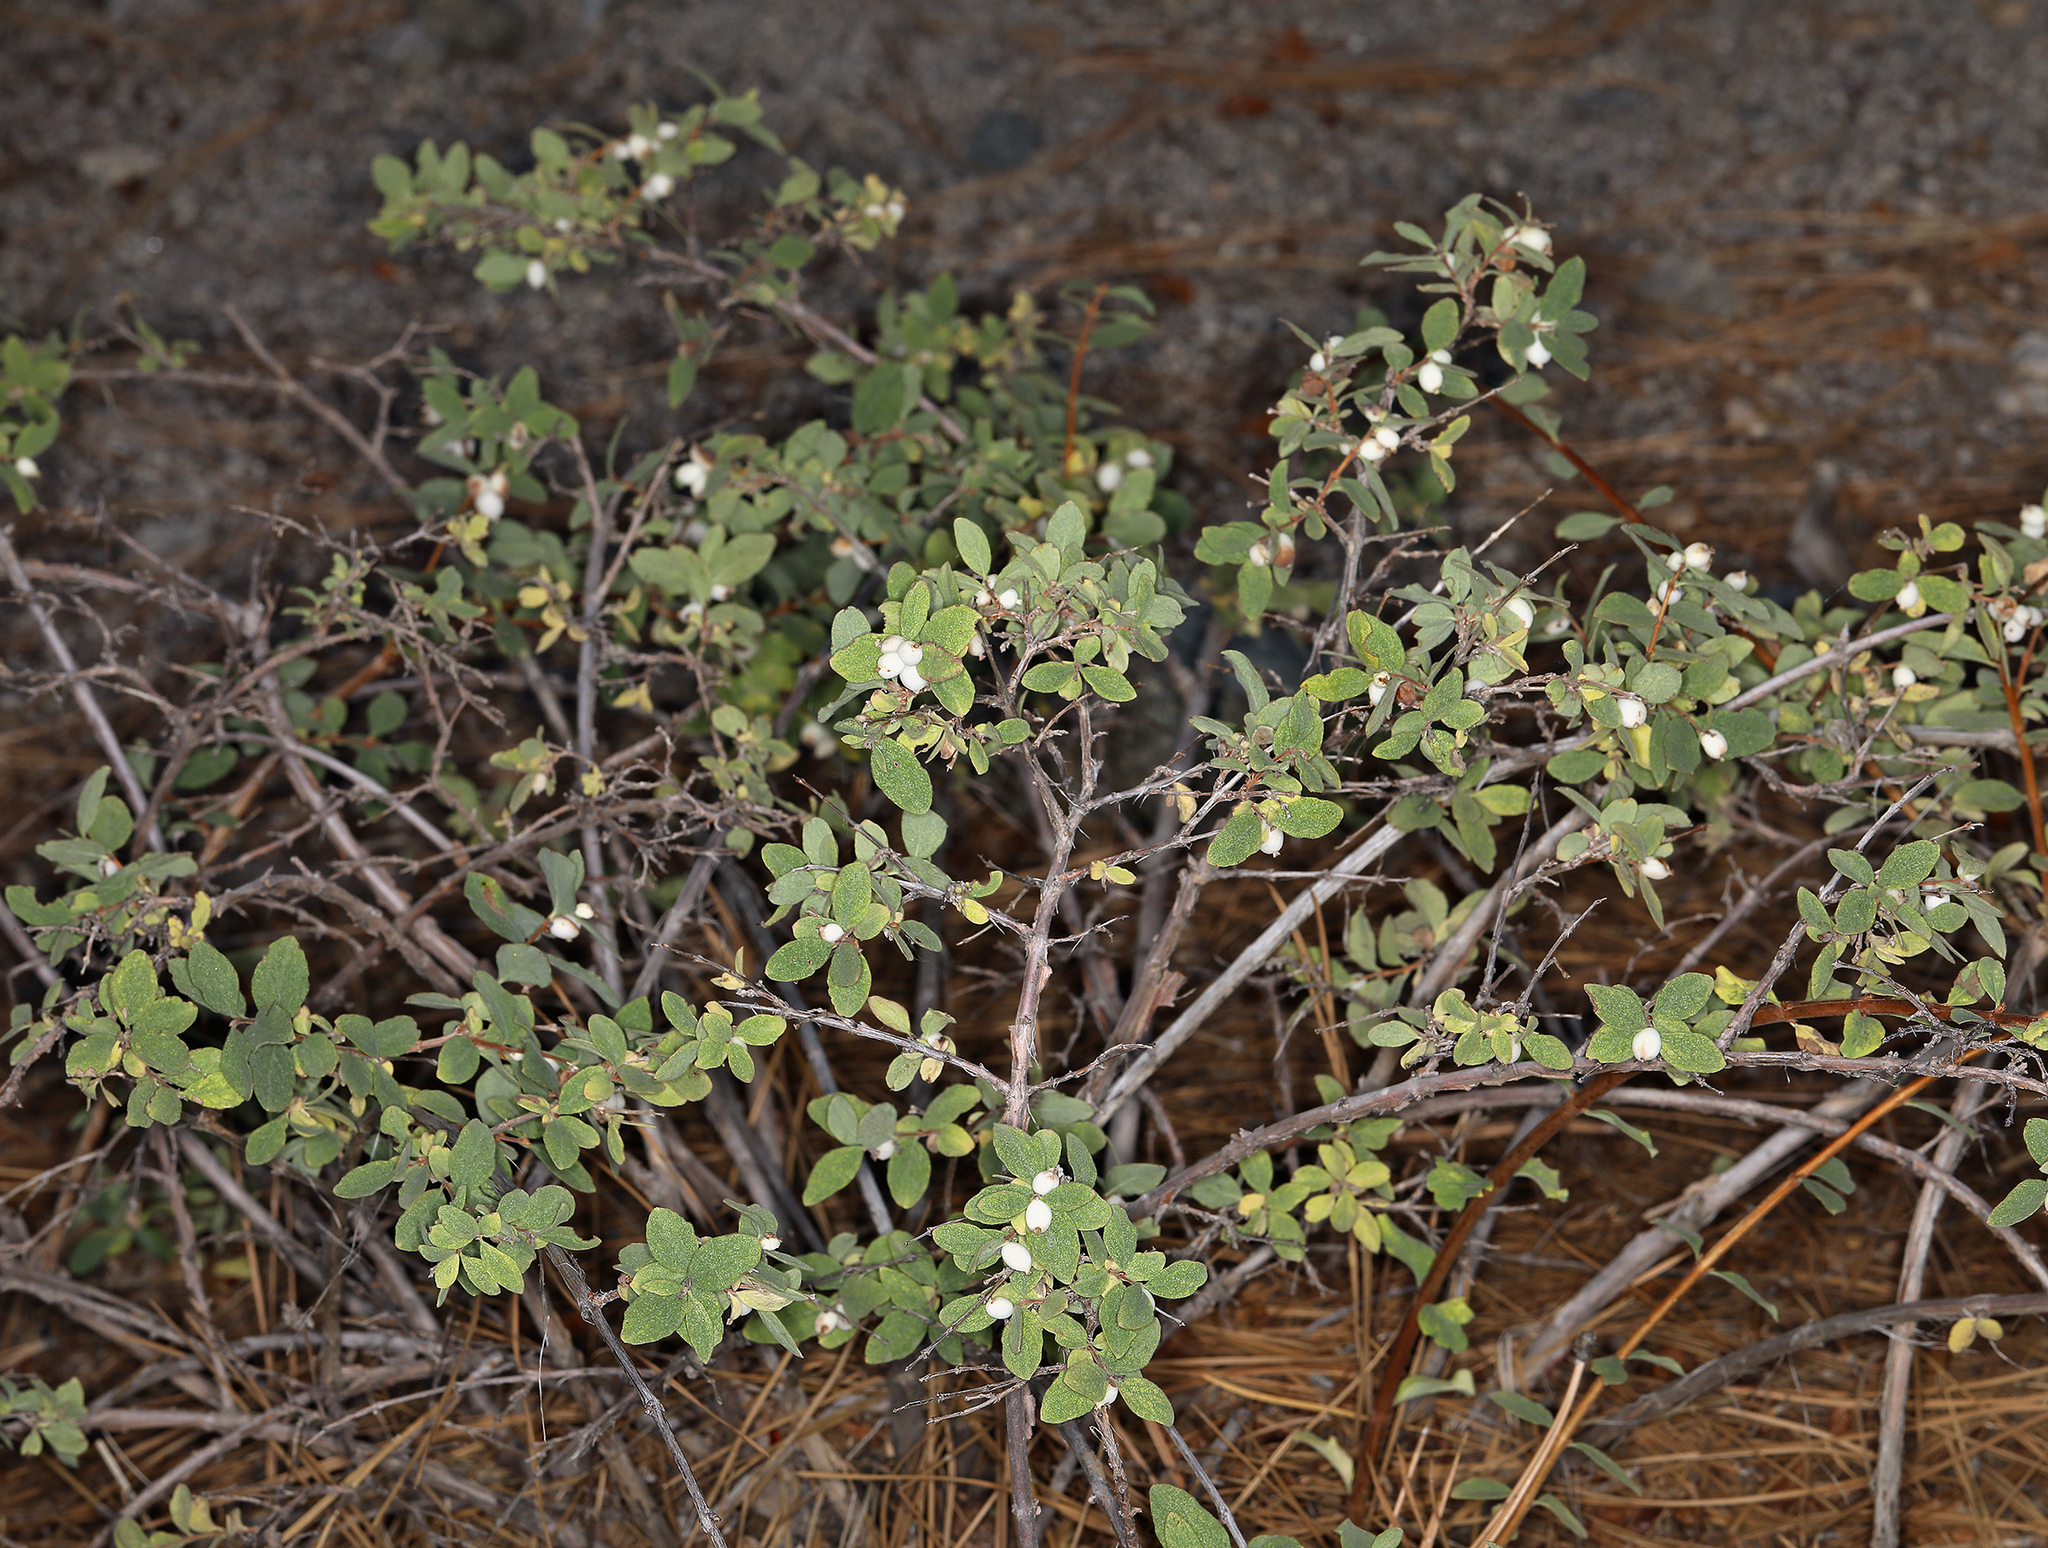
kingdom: Plantae
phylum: Tracheophyta
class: Magnoliopsida
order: Dipsacales
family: Caprifoliaceae
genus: Symphoricarpos
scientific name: Symphoricarpos rotundifolius
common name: Round-leaved snowberry
